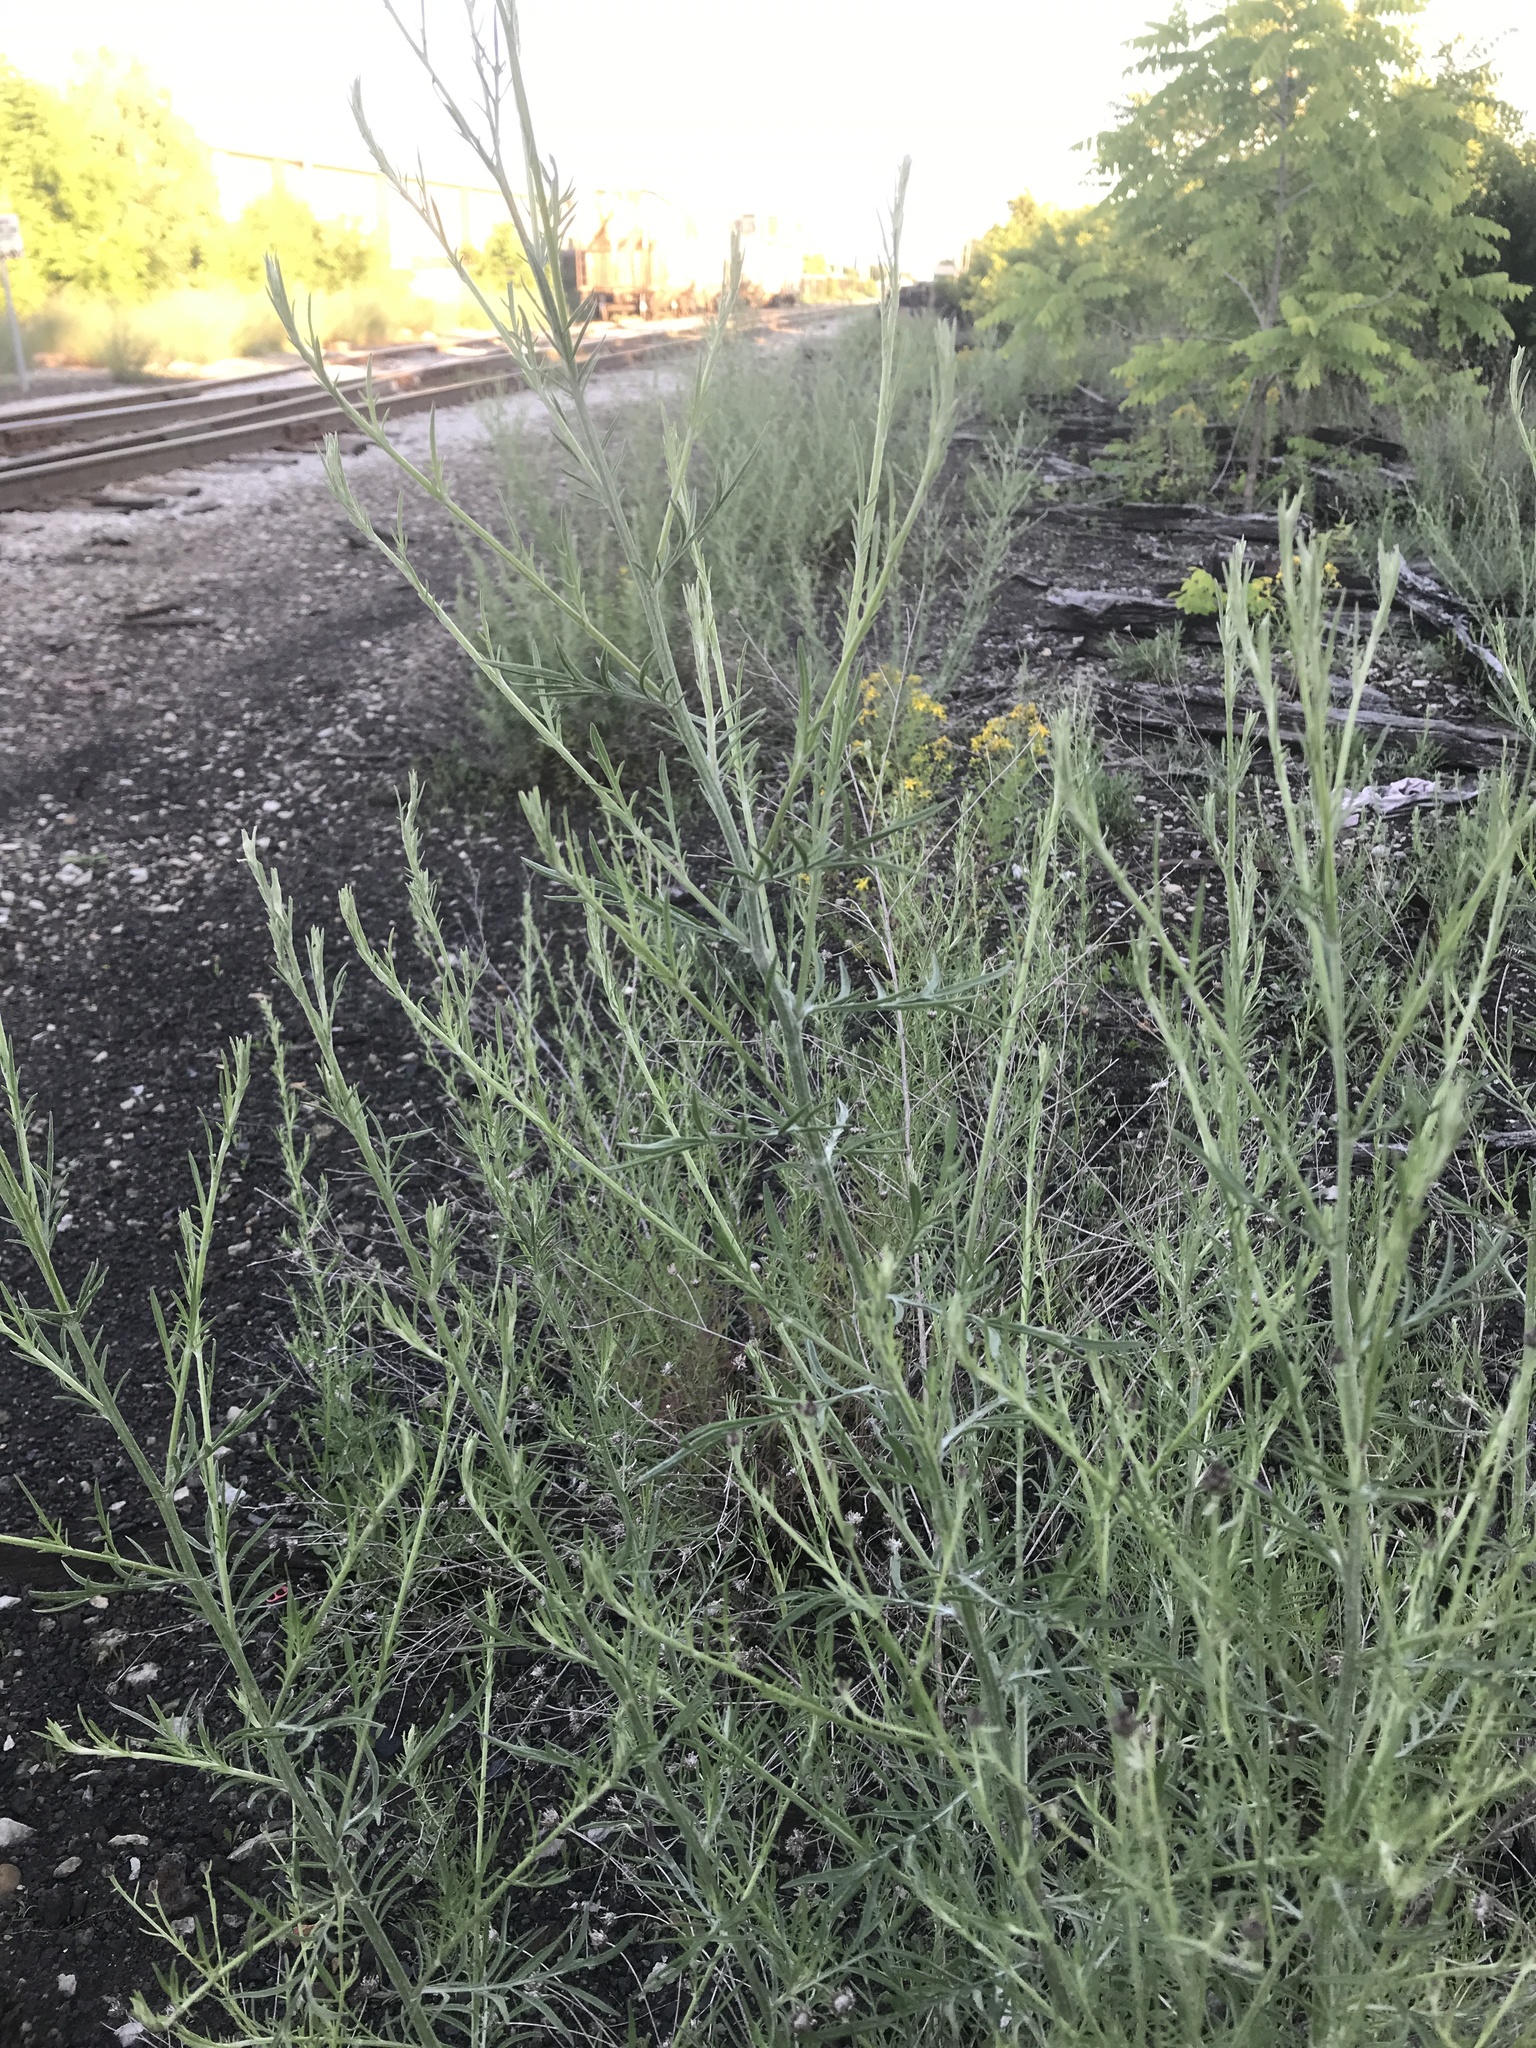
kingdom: Plantae
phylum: Tracheophyta
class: Magnoliopsida
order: Asterales
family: Asteraceae
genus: Centaurea
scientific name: Centaurea stoebe
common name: Spotted knapweed
